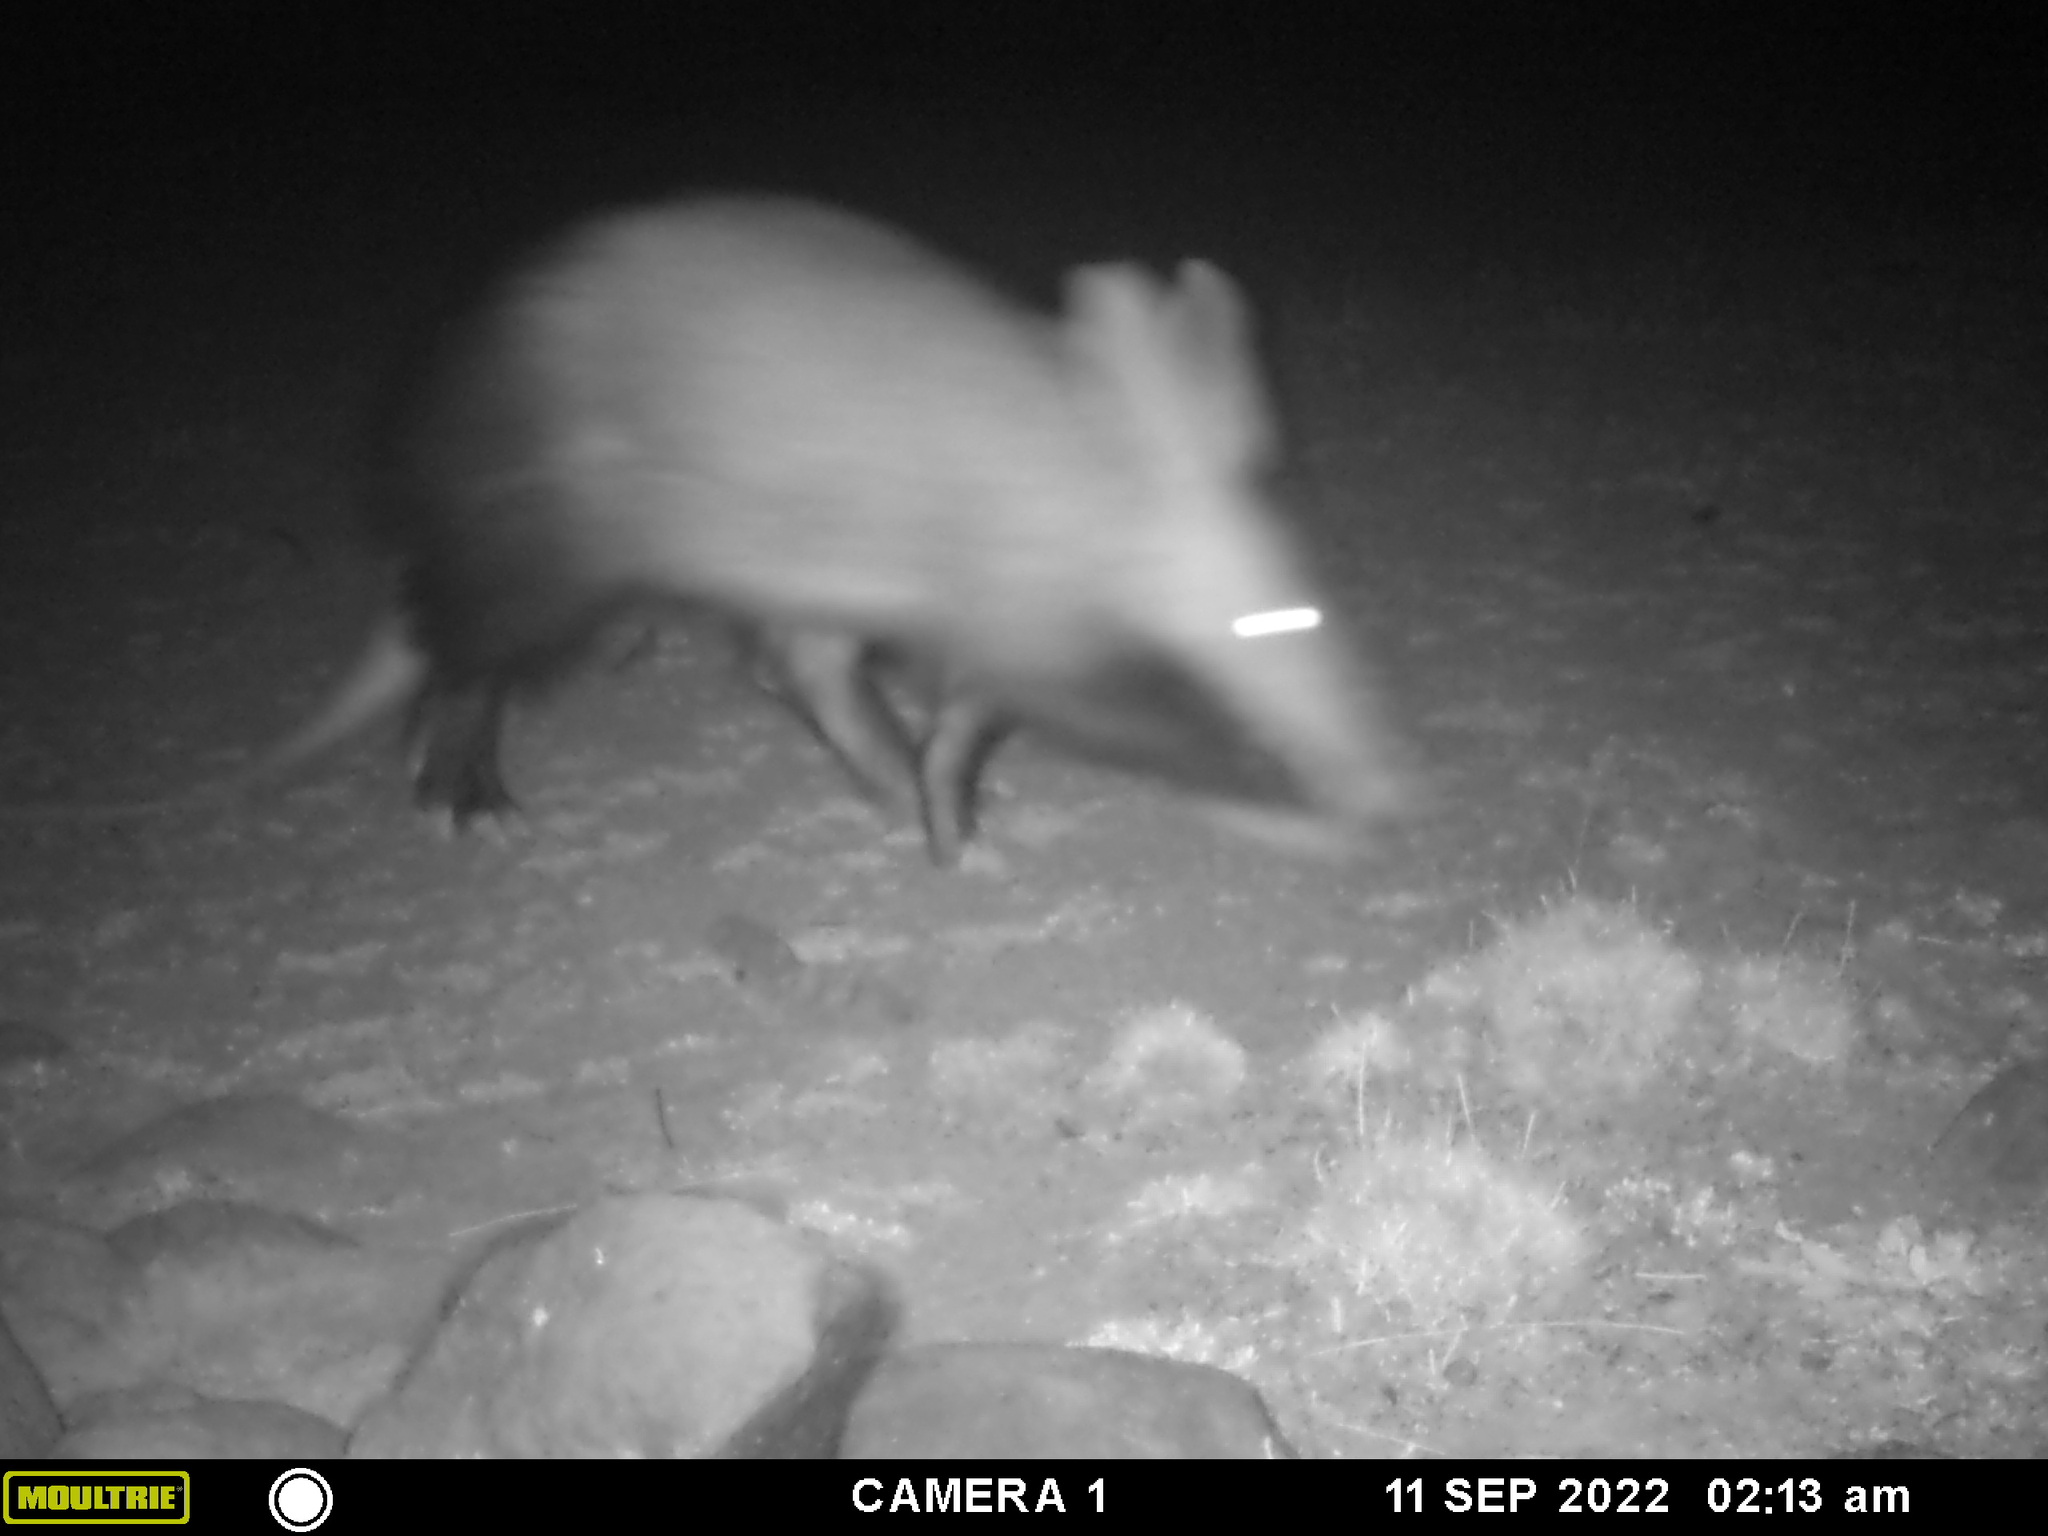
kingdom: Animalia
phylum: Chordata
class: Mammalia
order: Tubulidentata
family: Orycteropodidae
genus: Orycteropus
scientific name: Orycteropus afer
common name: Aardvark
